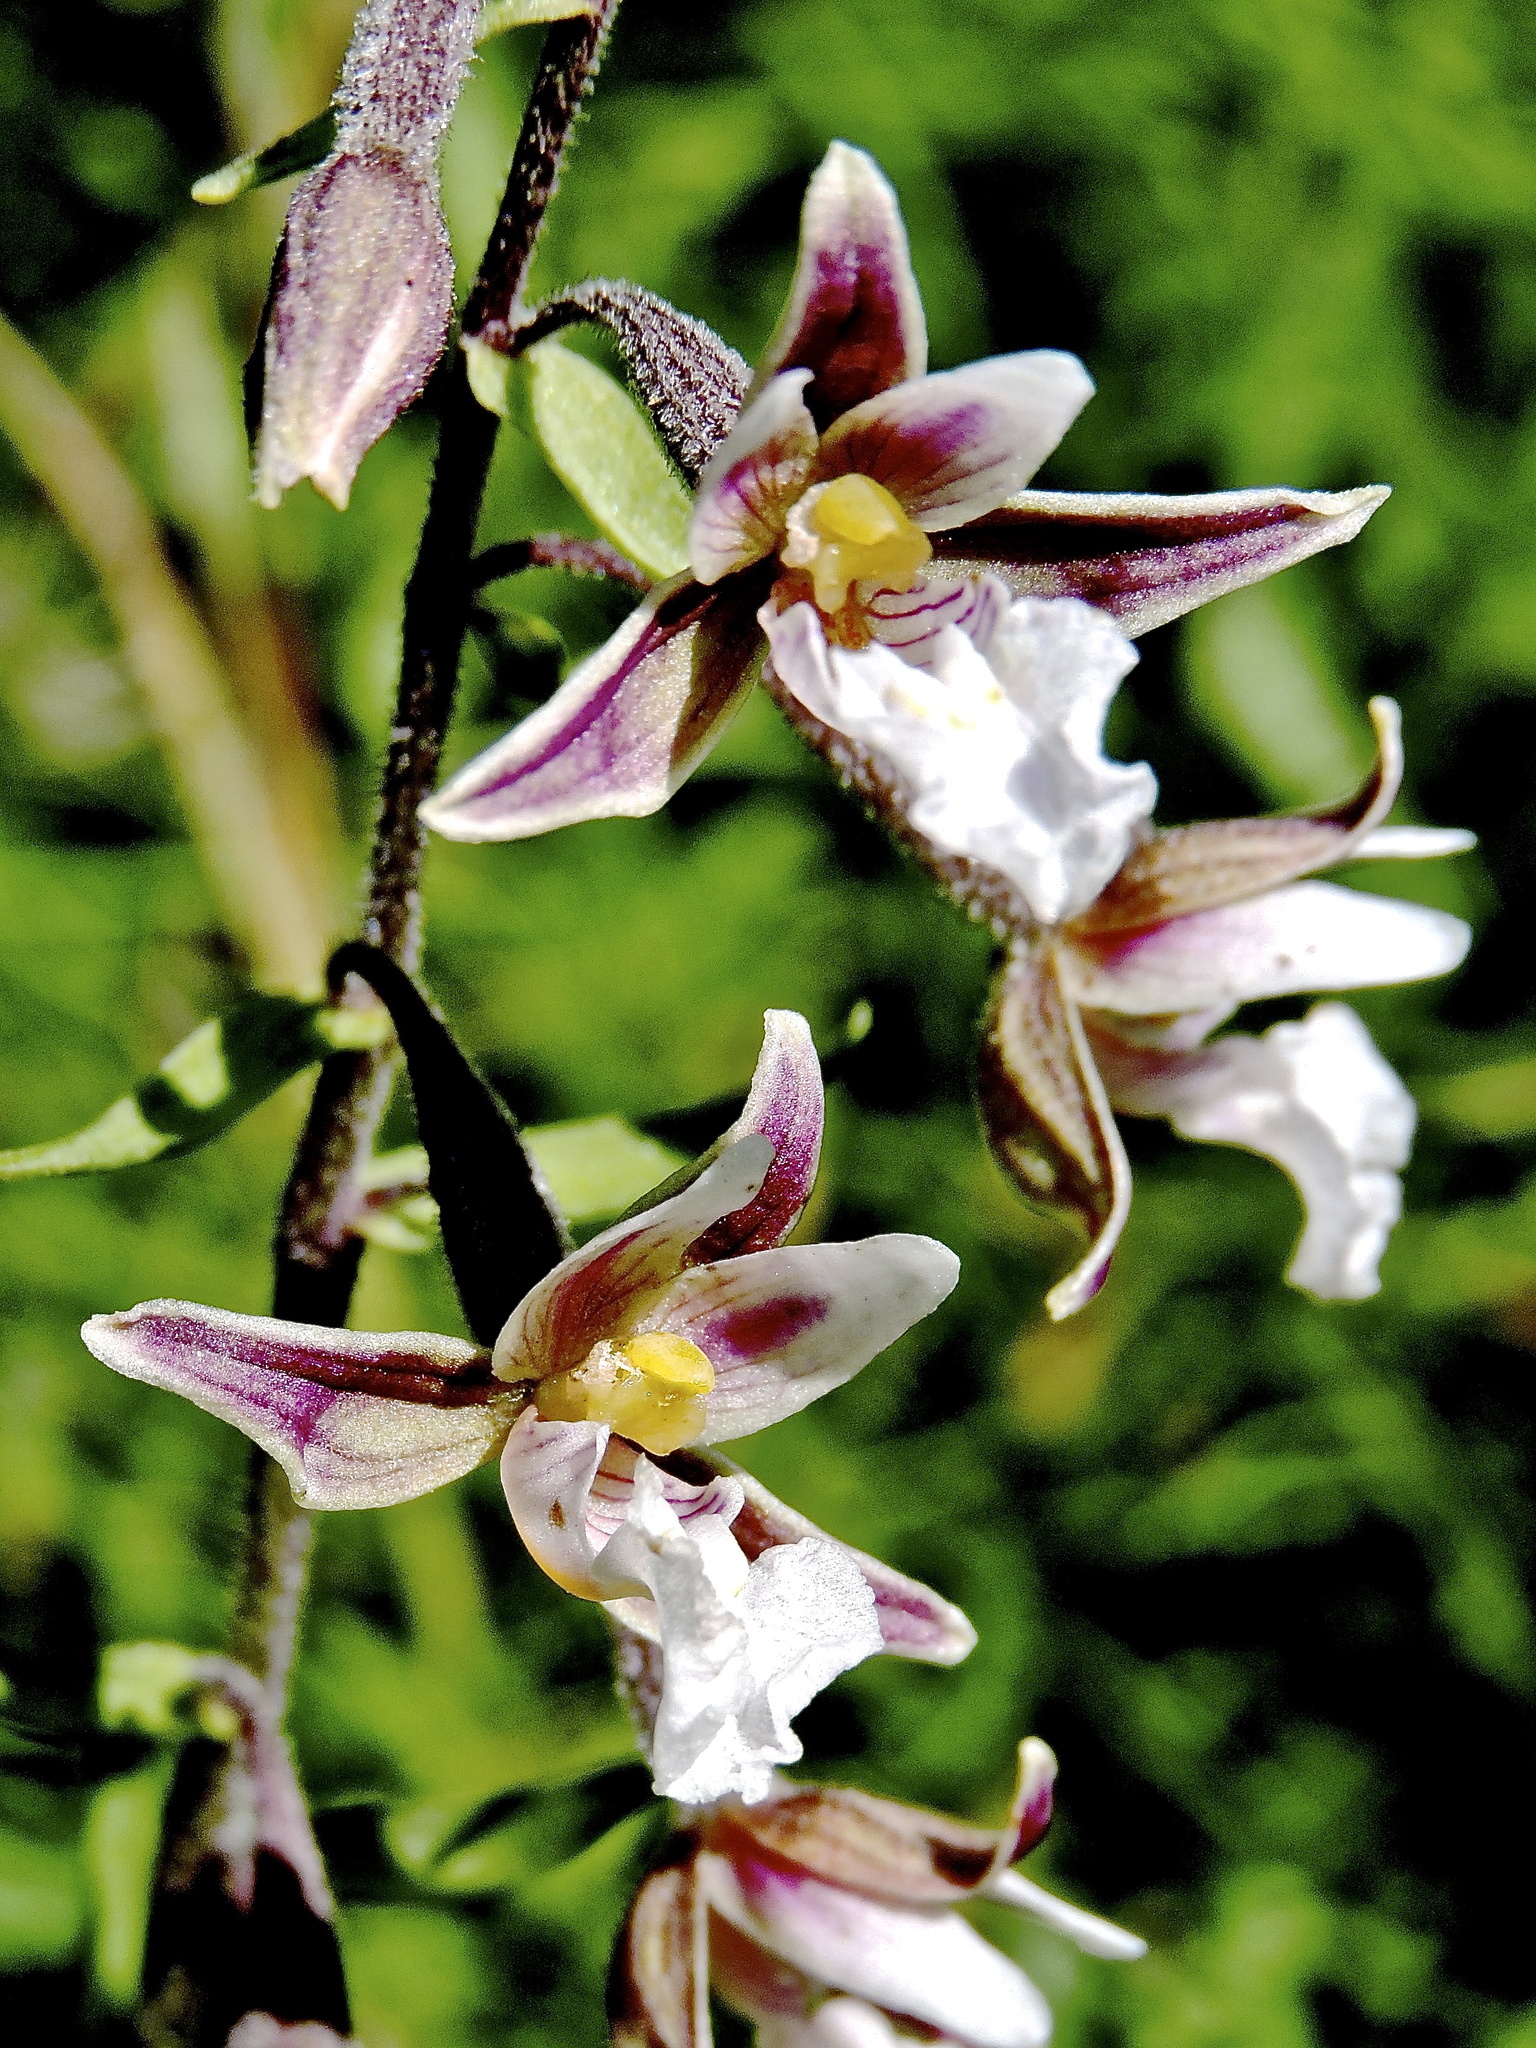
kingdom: Plantae
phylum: Tracheophyta
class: Liliopsida
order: Asparagales
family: Orchidaceae
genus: Epipactis
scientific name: Epipactis palustris
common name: Marsh helleborine
